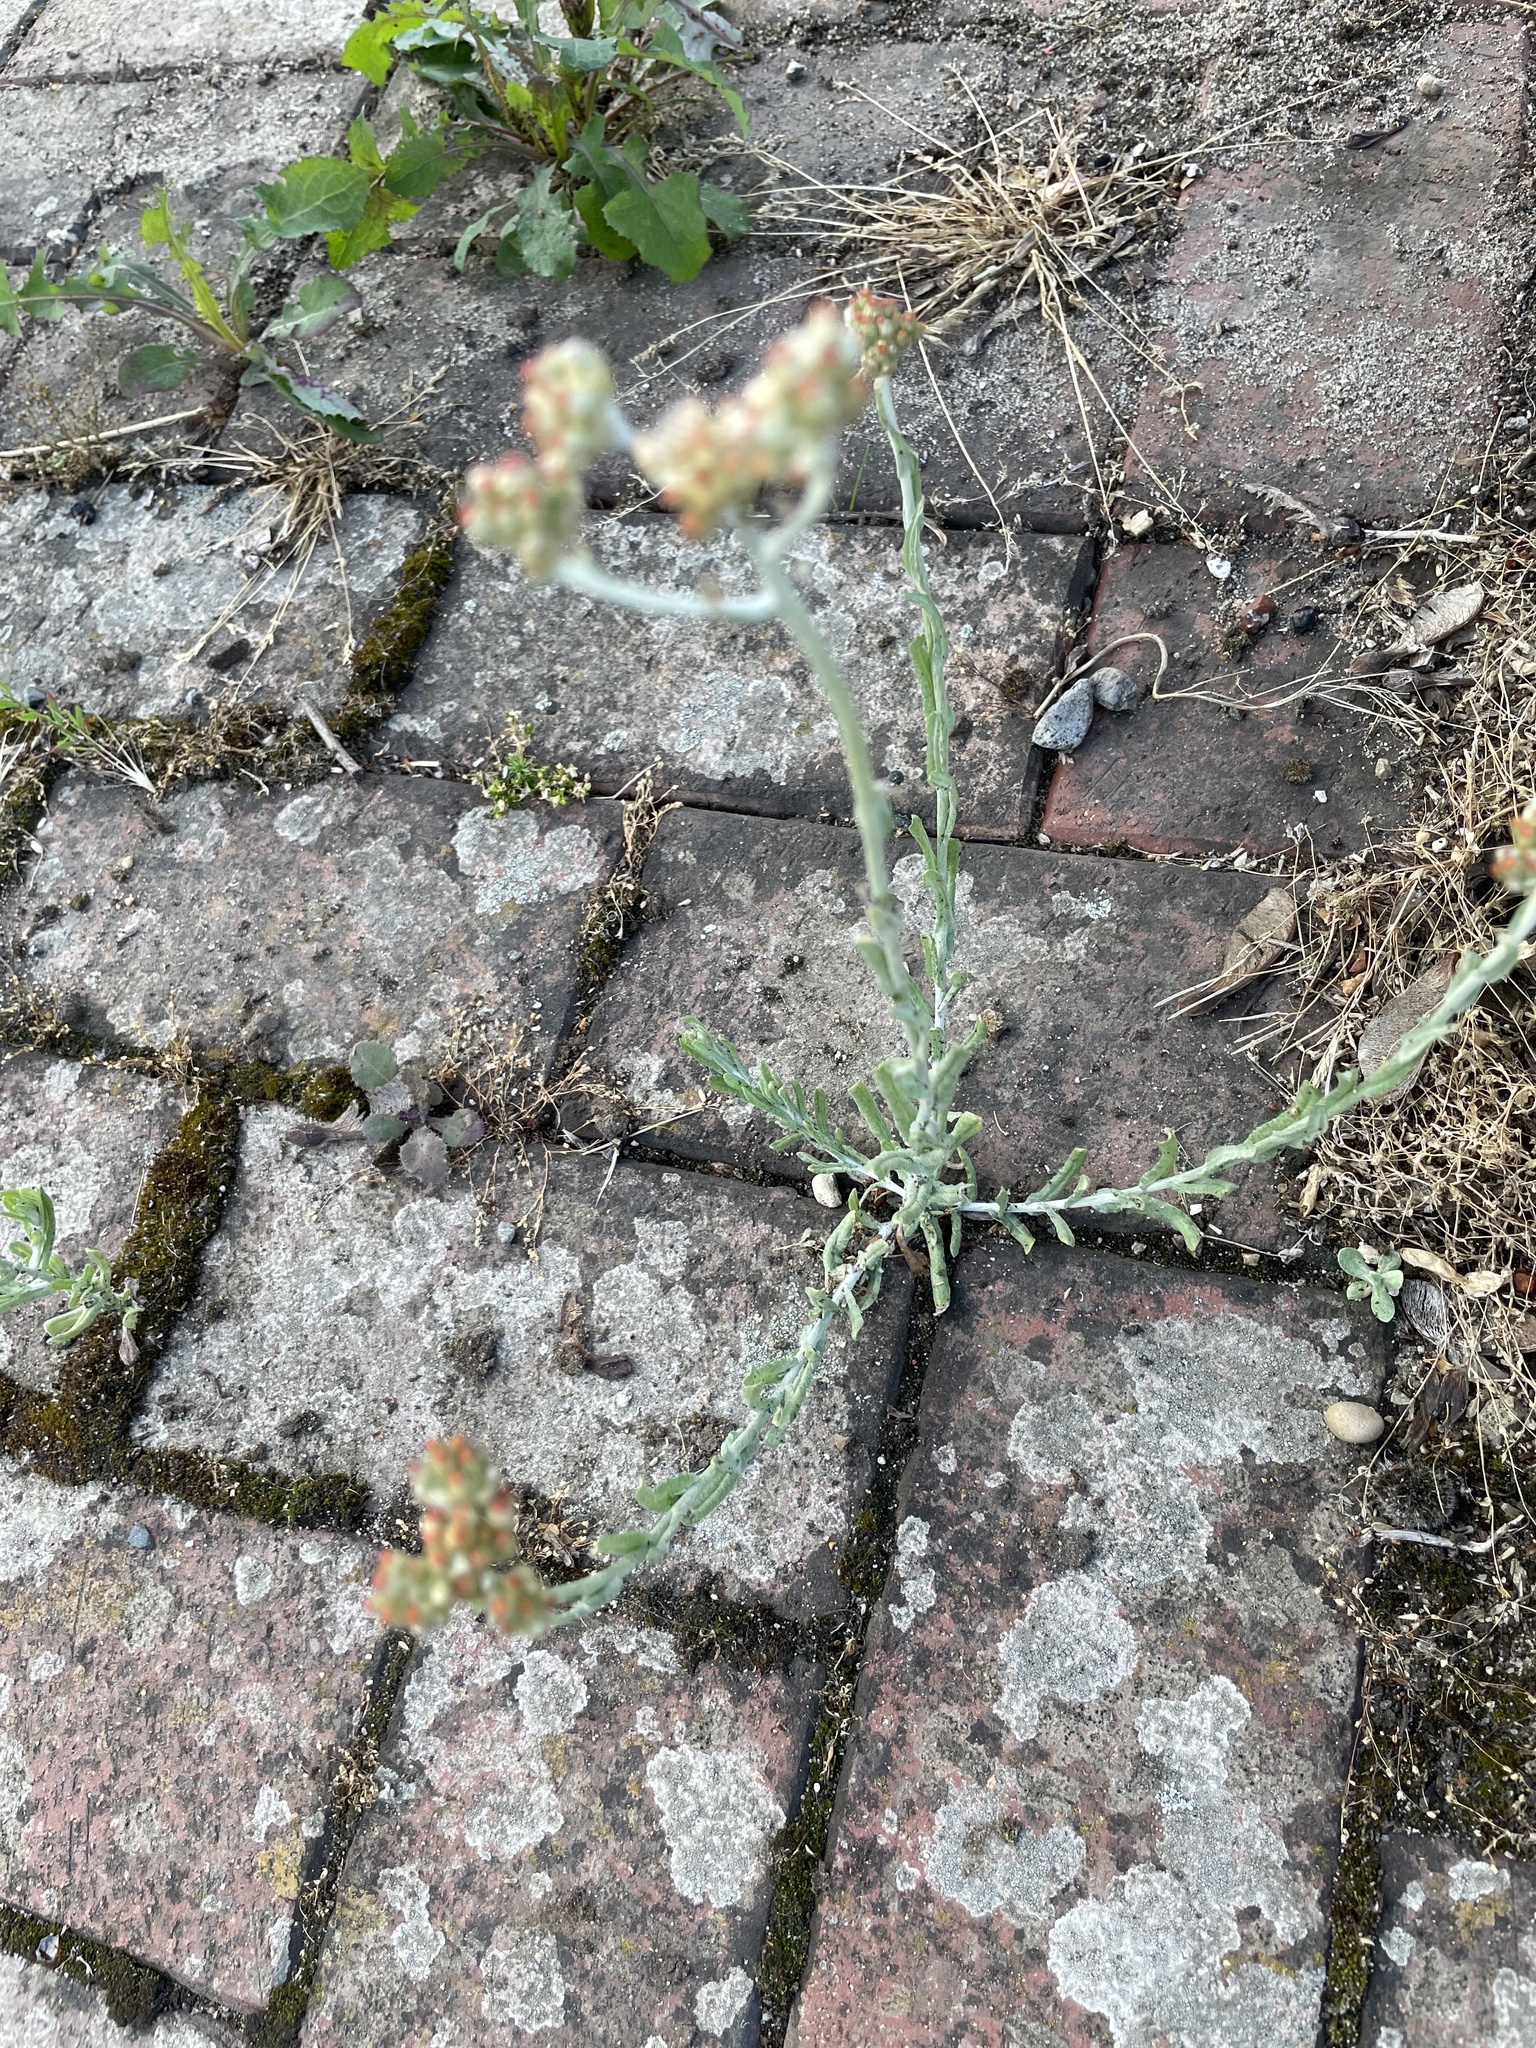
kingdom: Plantae
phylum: Tracheophyta
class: Magnoliopsida
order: Asterales
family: Asteraceae
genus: Helichrysum
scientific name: Helichrysum luteoalbum
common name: Daisy
